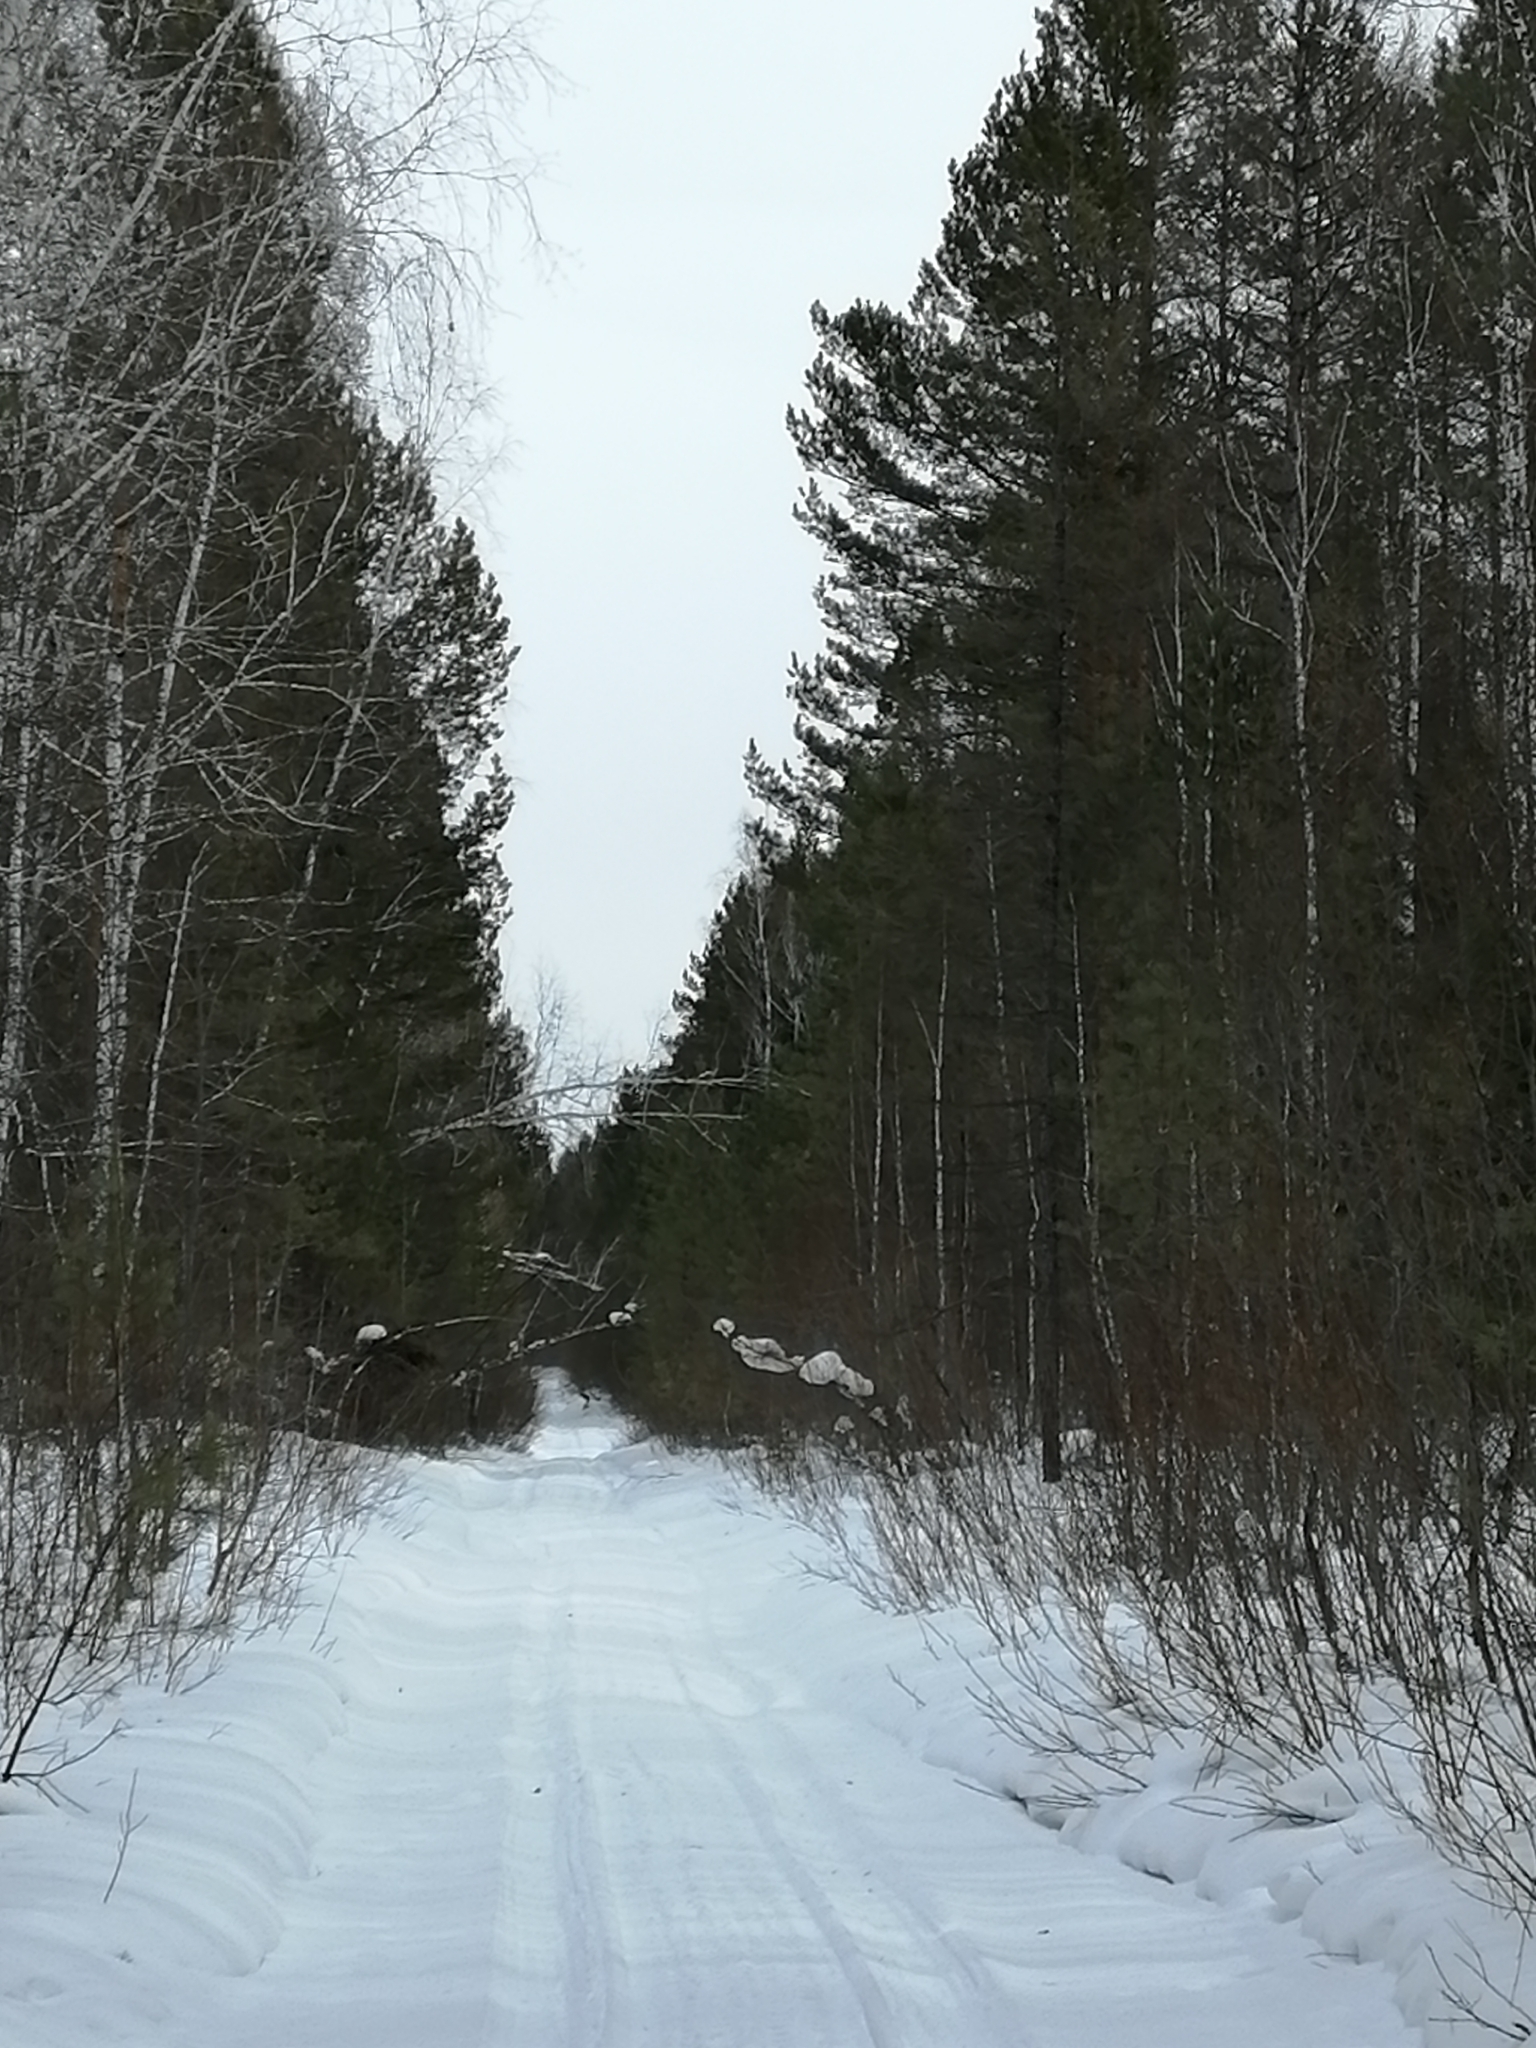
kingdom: Plantae
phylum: Tracheophyta
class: Pinopsida
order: Pinales
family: Pinaceae
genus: Pinus
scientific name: Pinus sylvestris
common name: Scots pine
